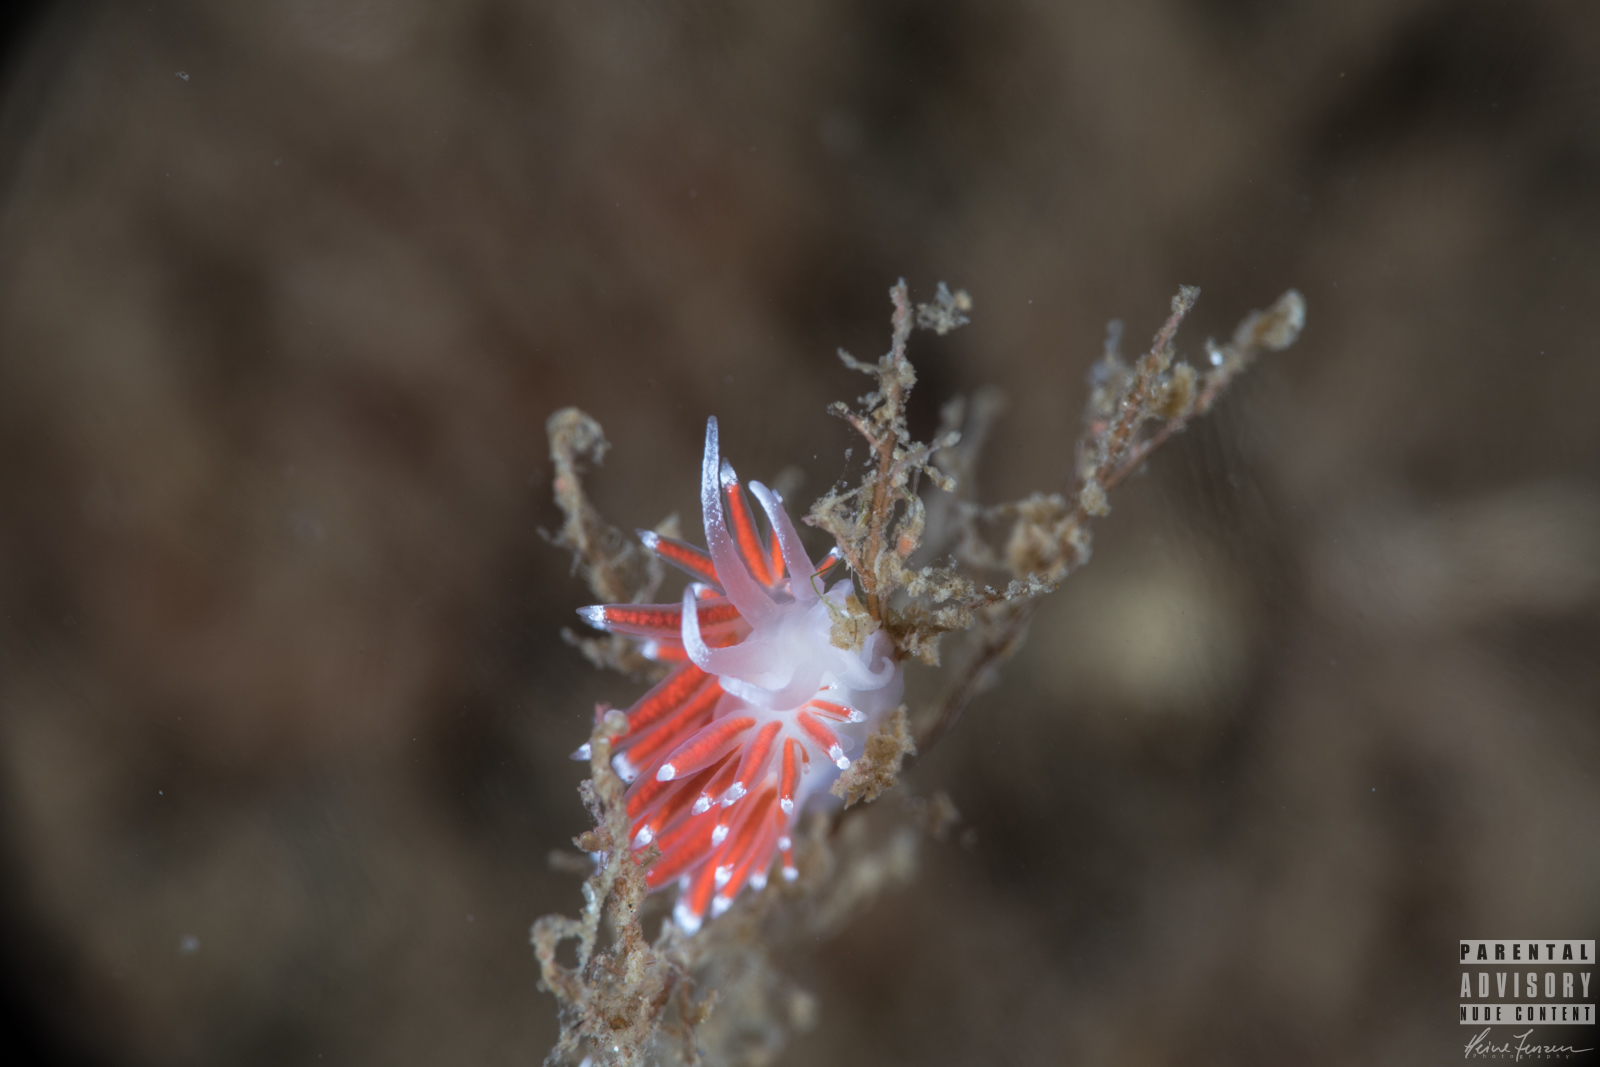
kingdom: Animalia
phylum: Mollusca
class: Gastropoda
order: Nudibranchia
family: Coryphellidae
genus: Coryphella
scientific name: Coryphella gracilis
